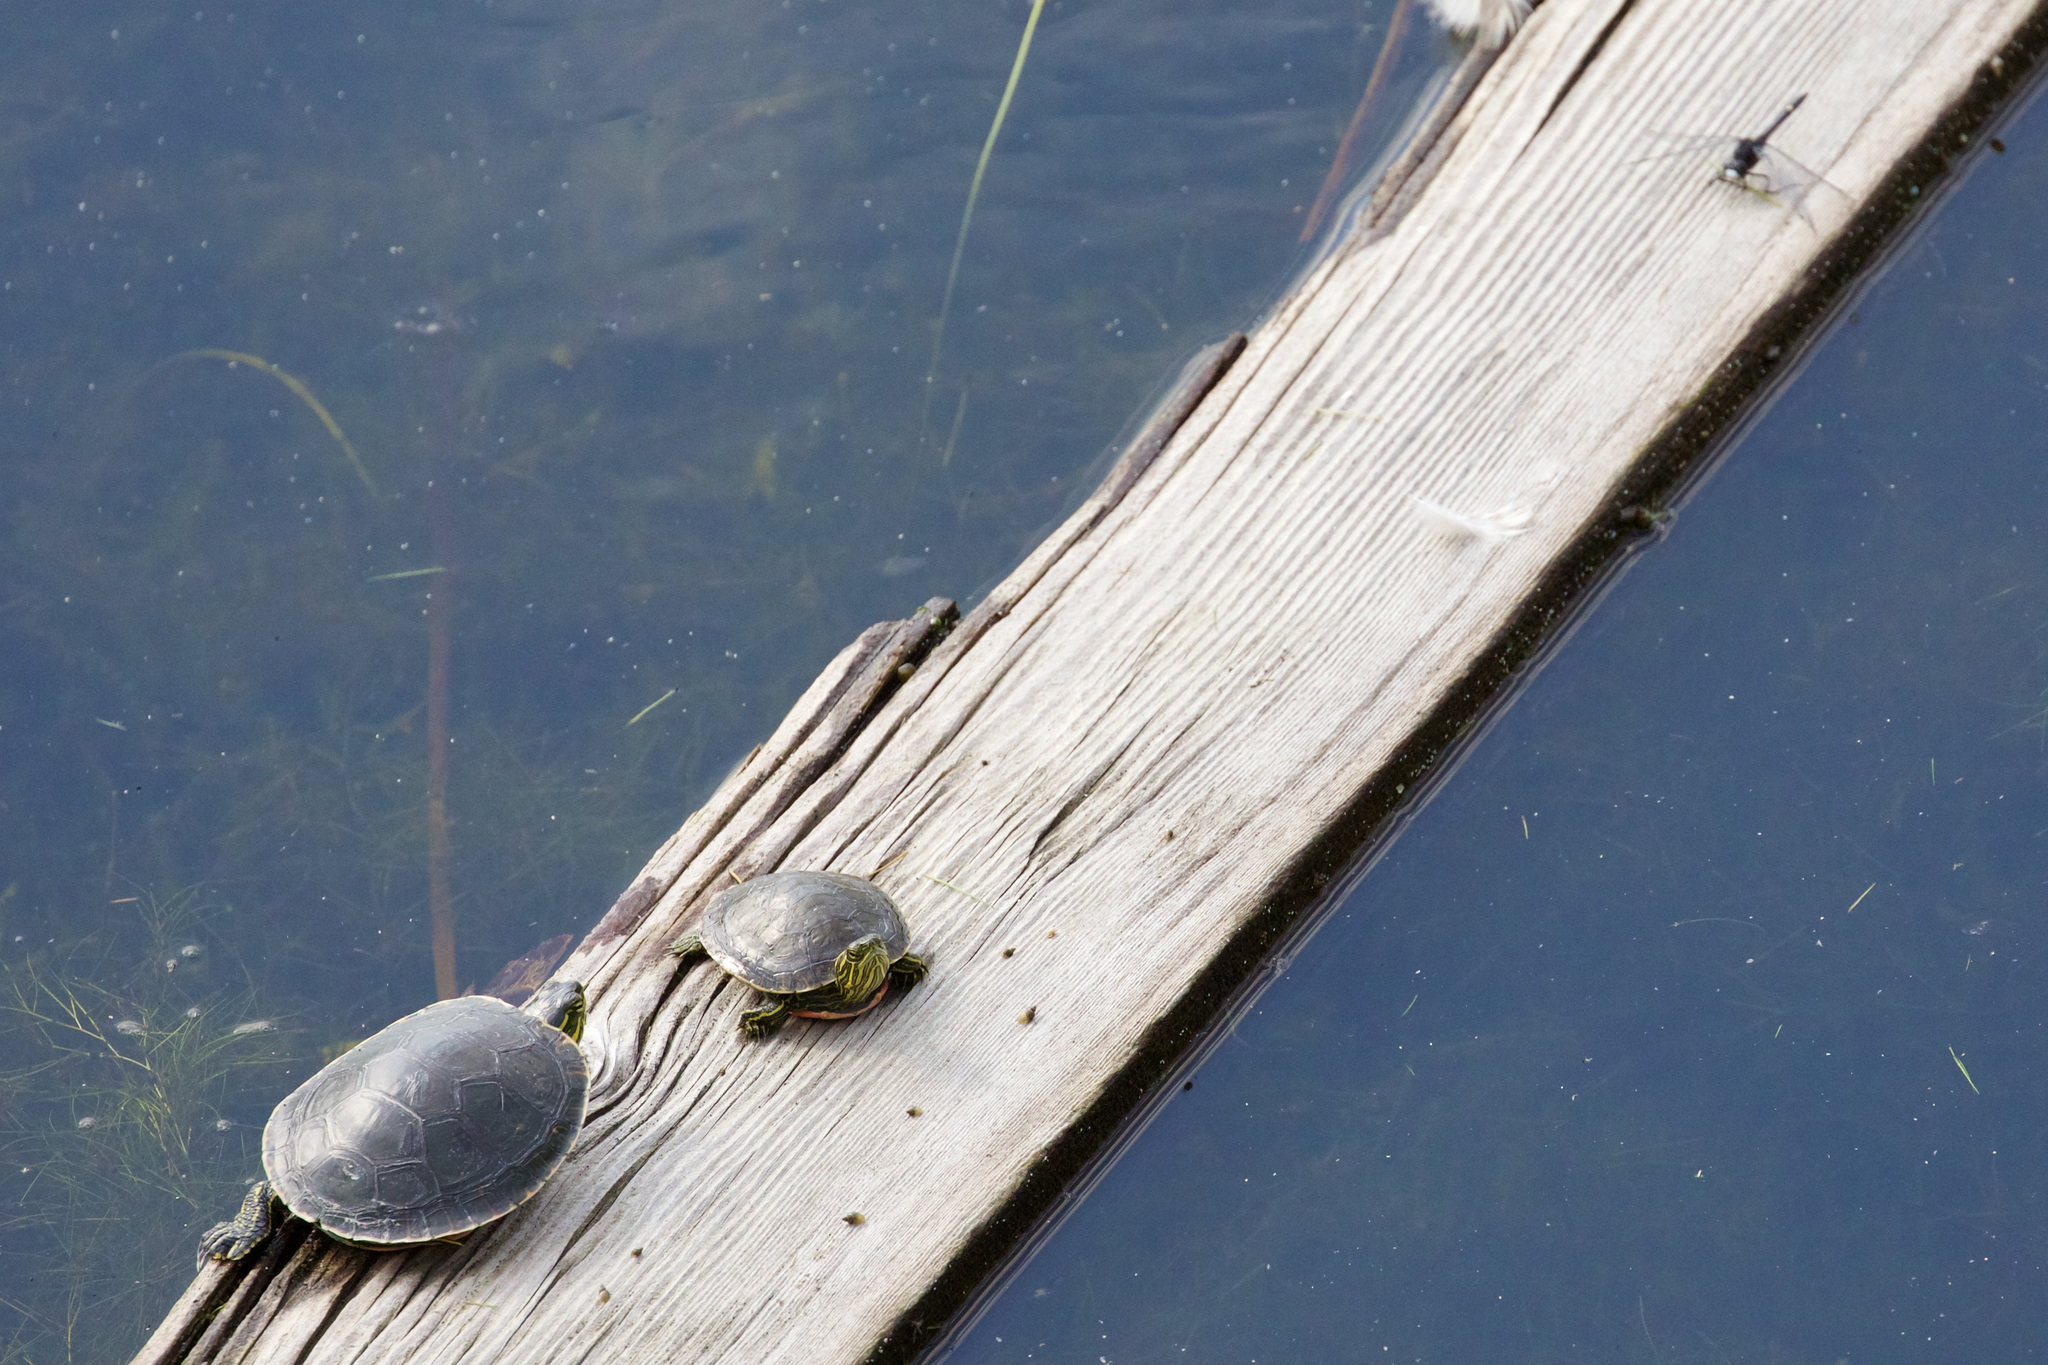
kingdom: Animalia
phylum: Chordata
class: Testudines
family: Emydidae
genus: Chrysemys
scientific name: Chrysemys picta
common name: Painted turtle
